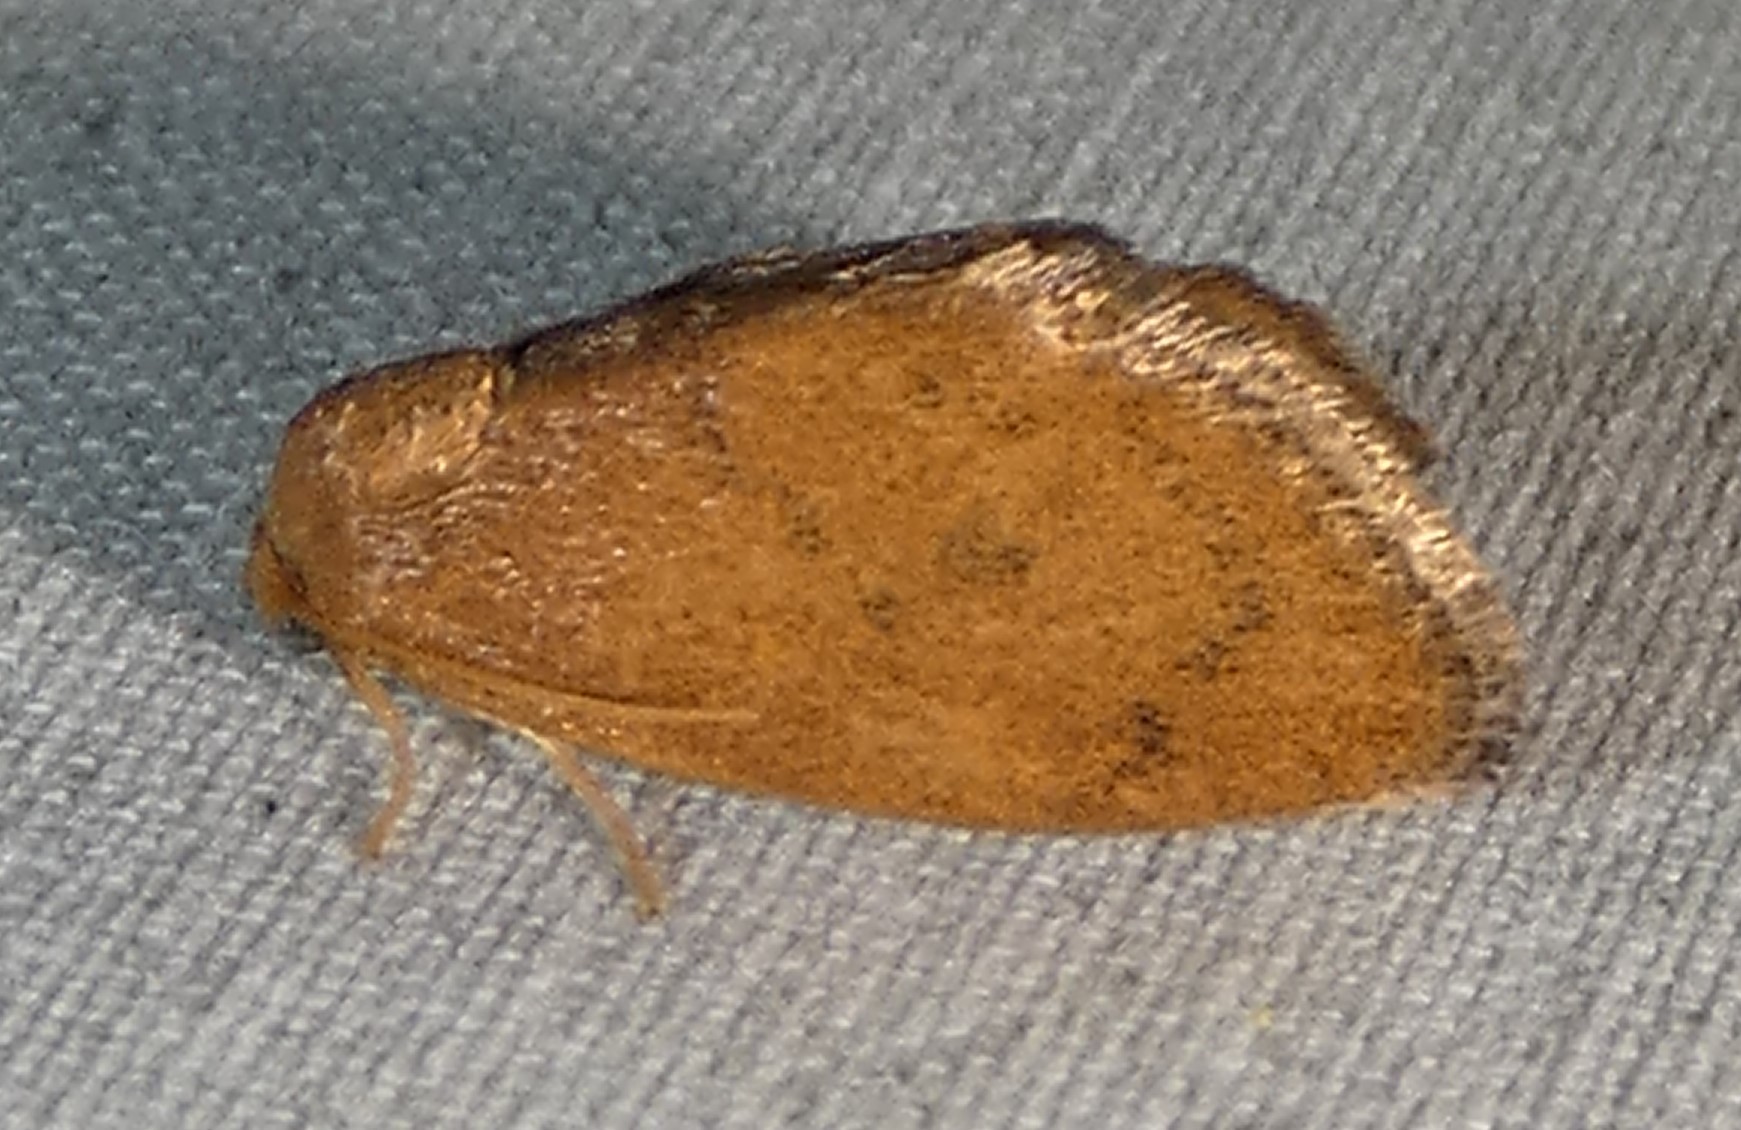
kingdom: Animalia
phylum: Arthropoda
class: Insecta
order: Lepidoptera
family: Limacodidae
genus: Heterogenea
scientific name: Heterogenea shurtleffi
